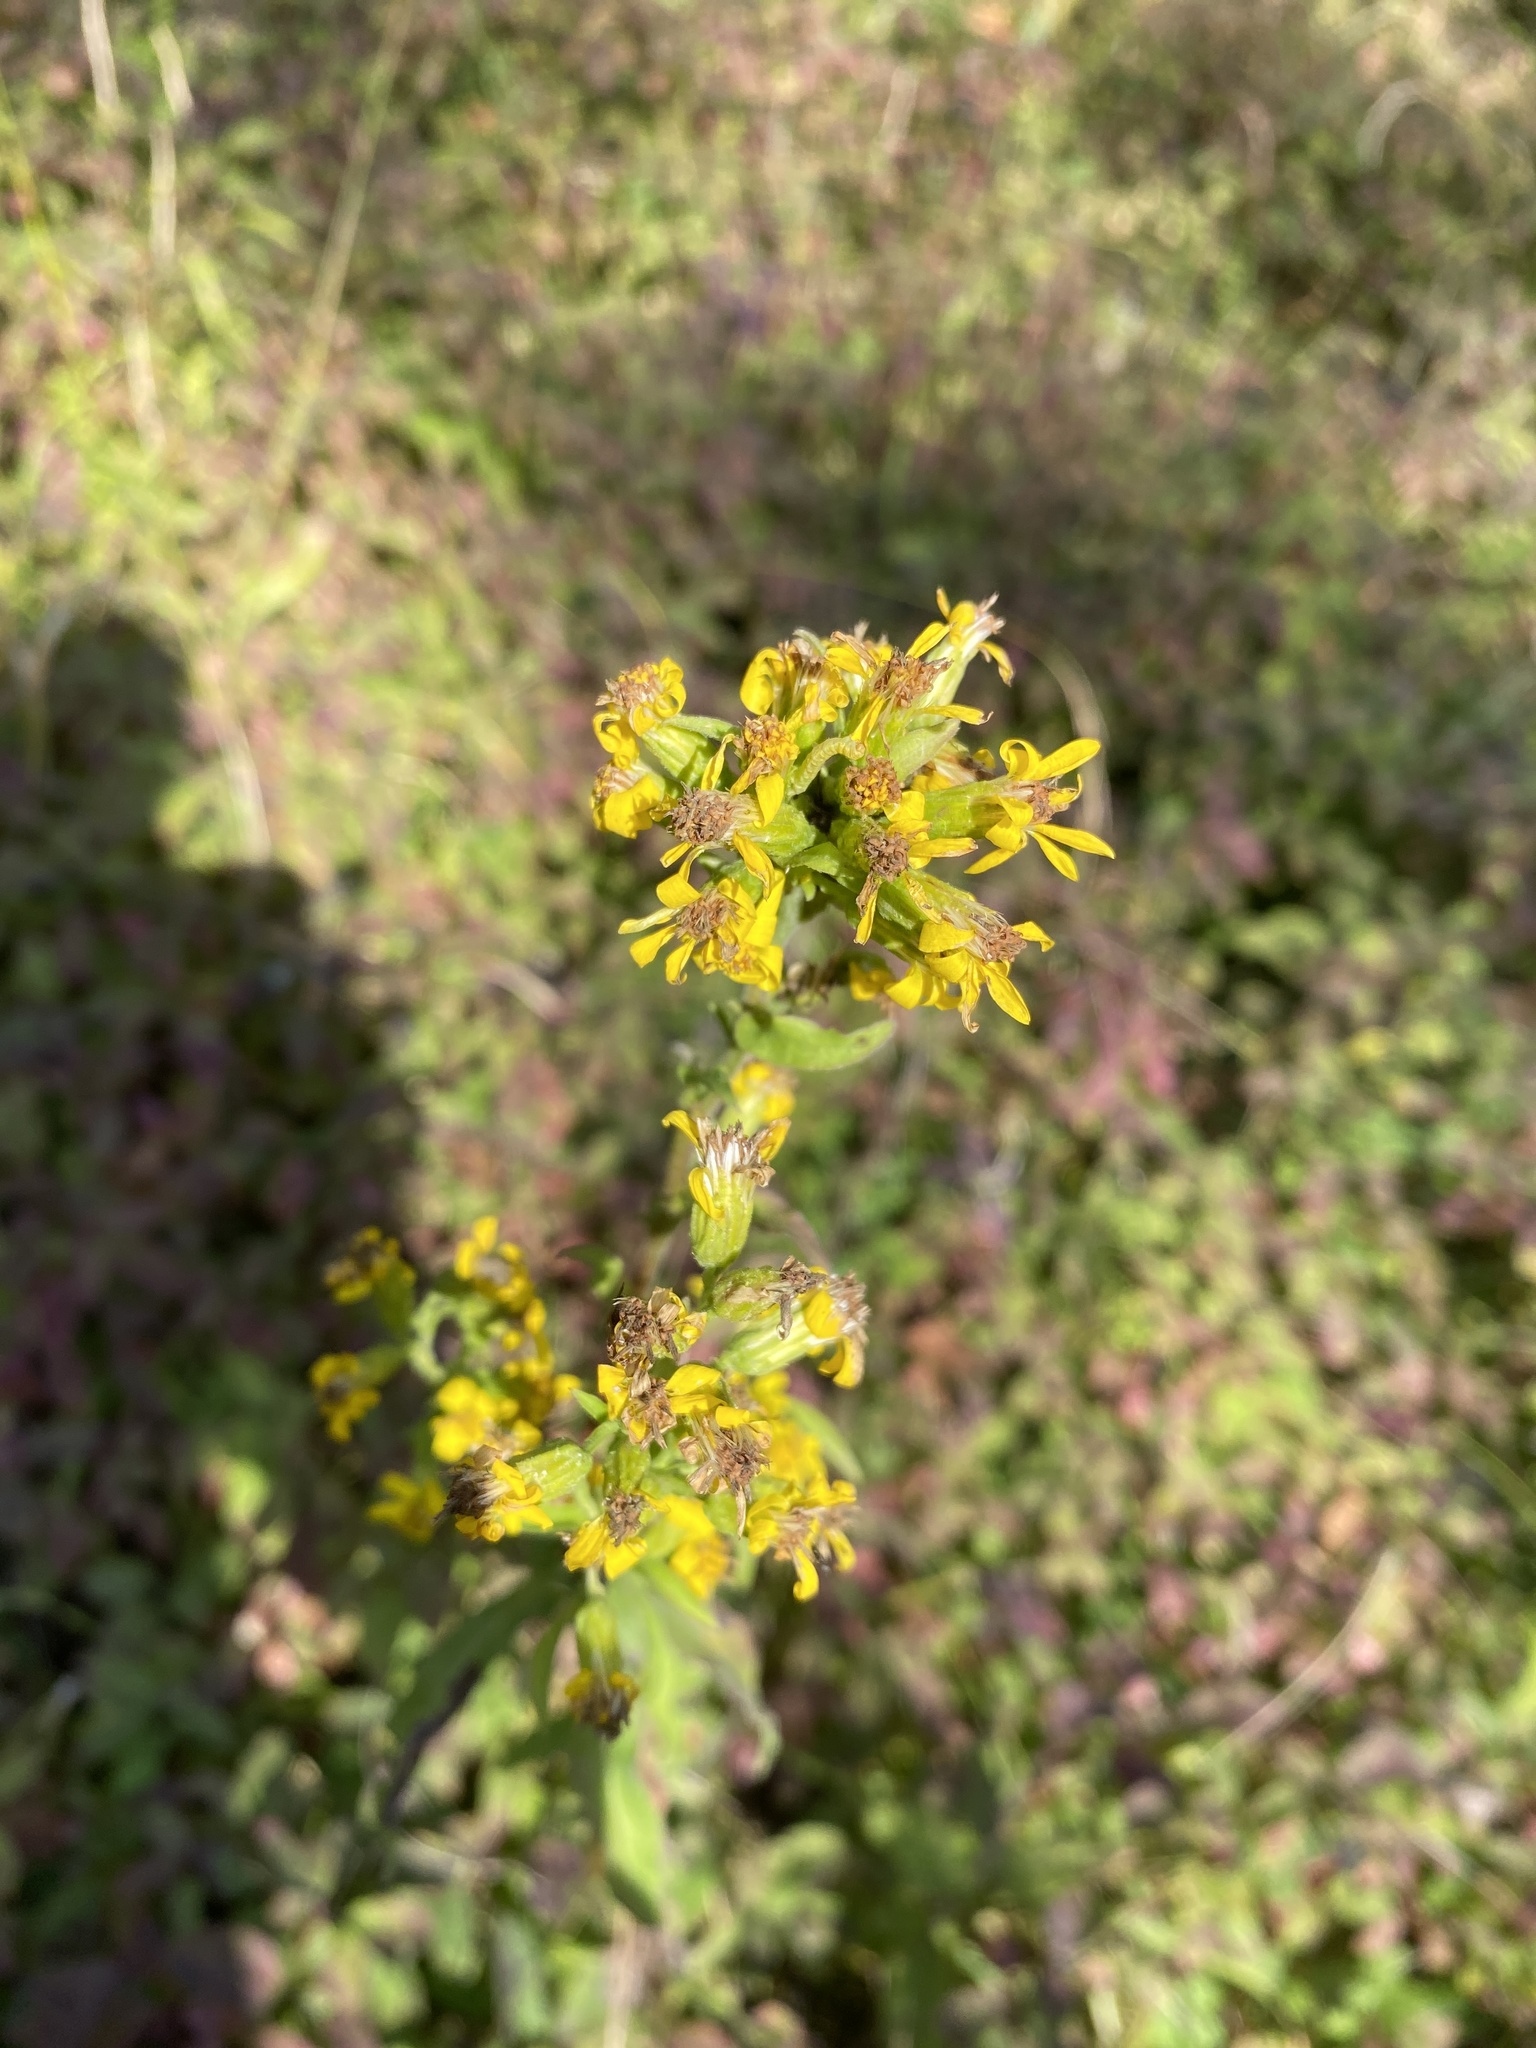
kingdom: Plantae
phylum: Tracheophyta
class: Magnoliopsida
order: Asterales
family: Asteraceae
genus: Solidago
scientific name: Solidago virgaurea
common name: Goldenrod
